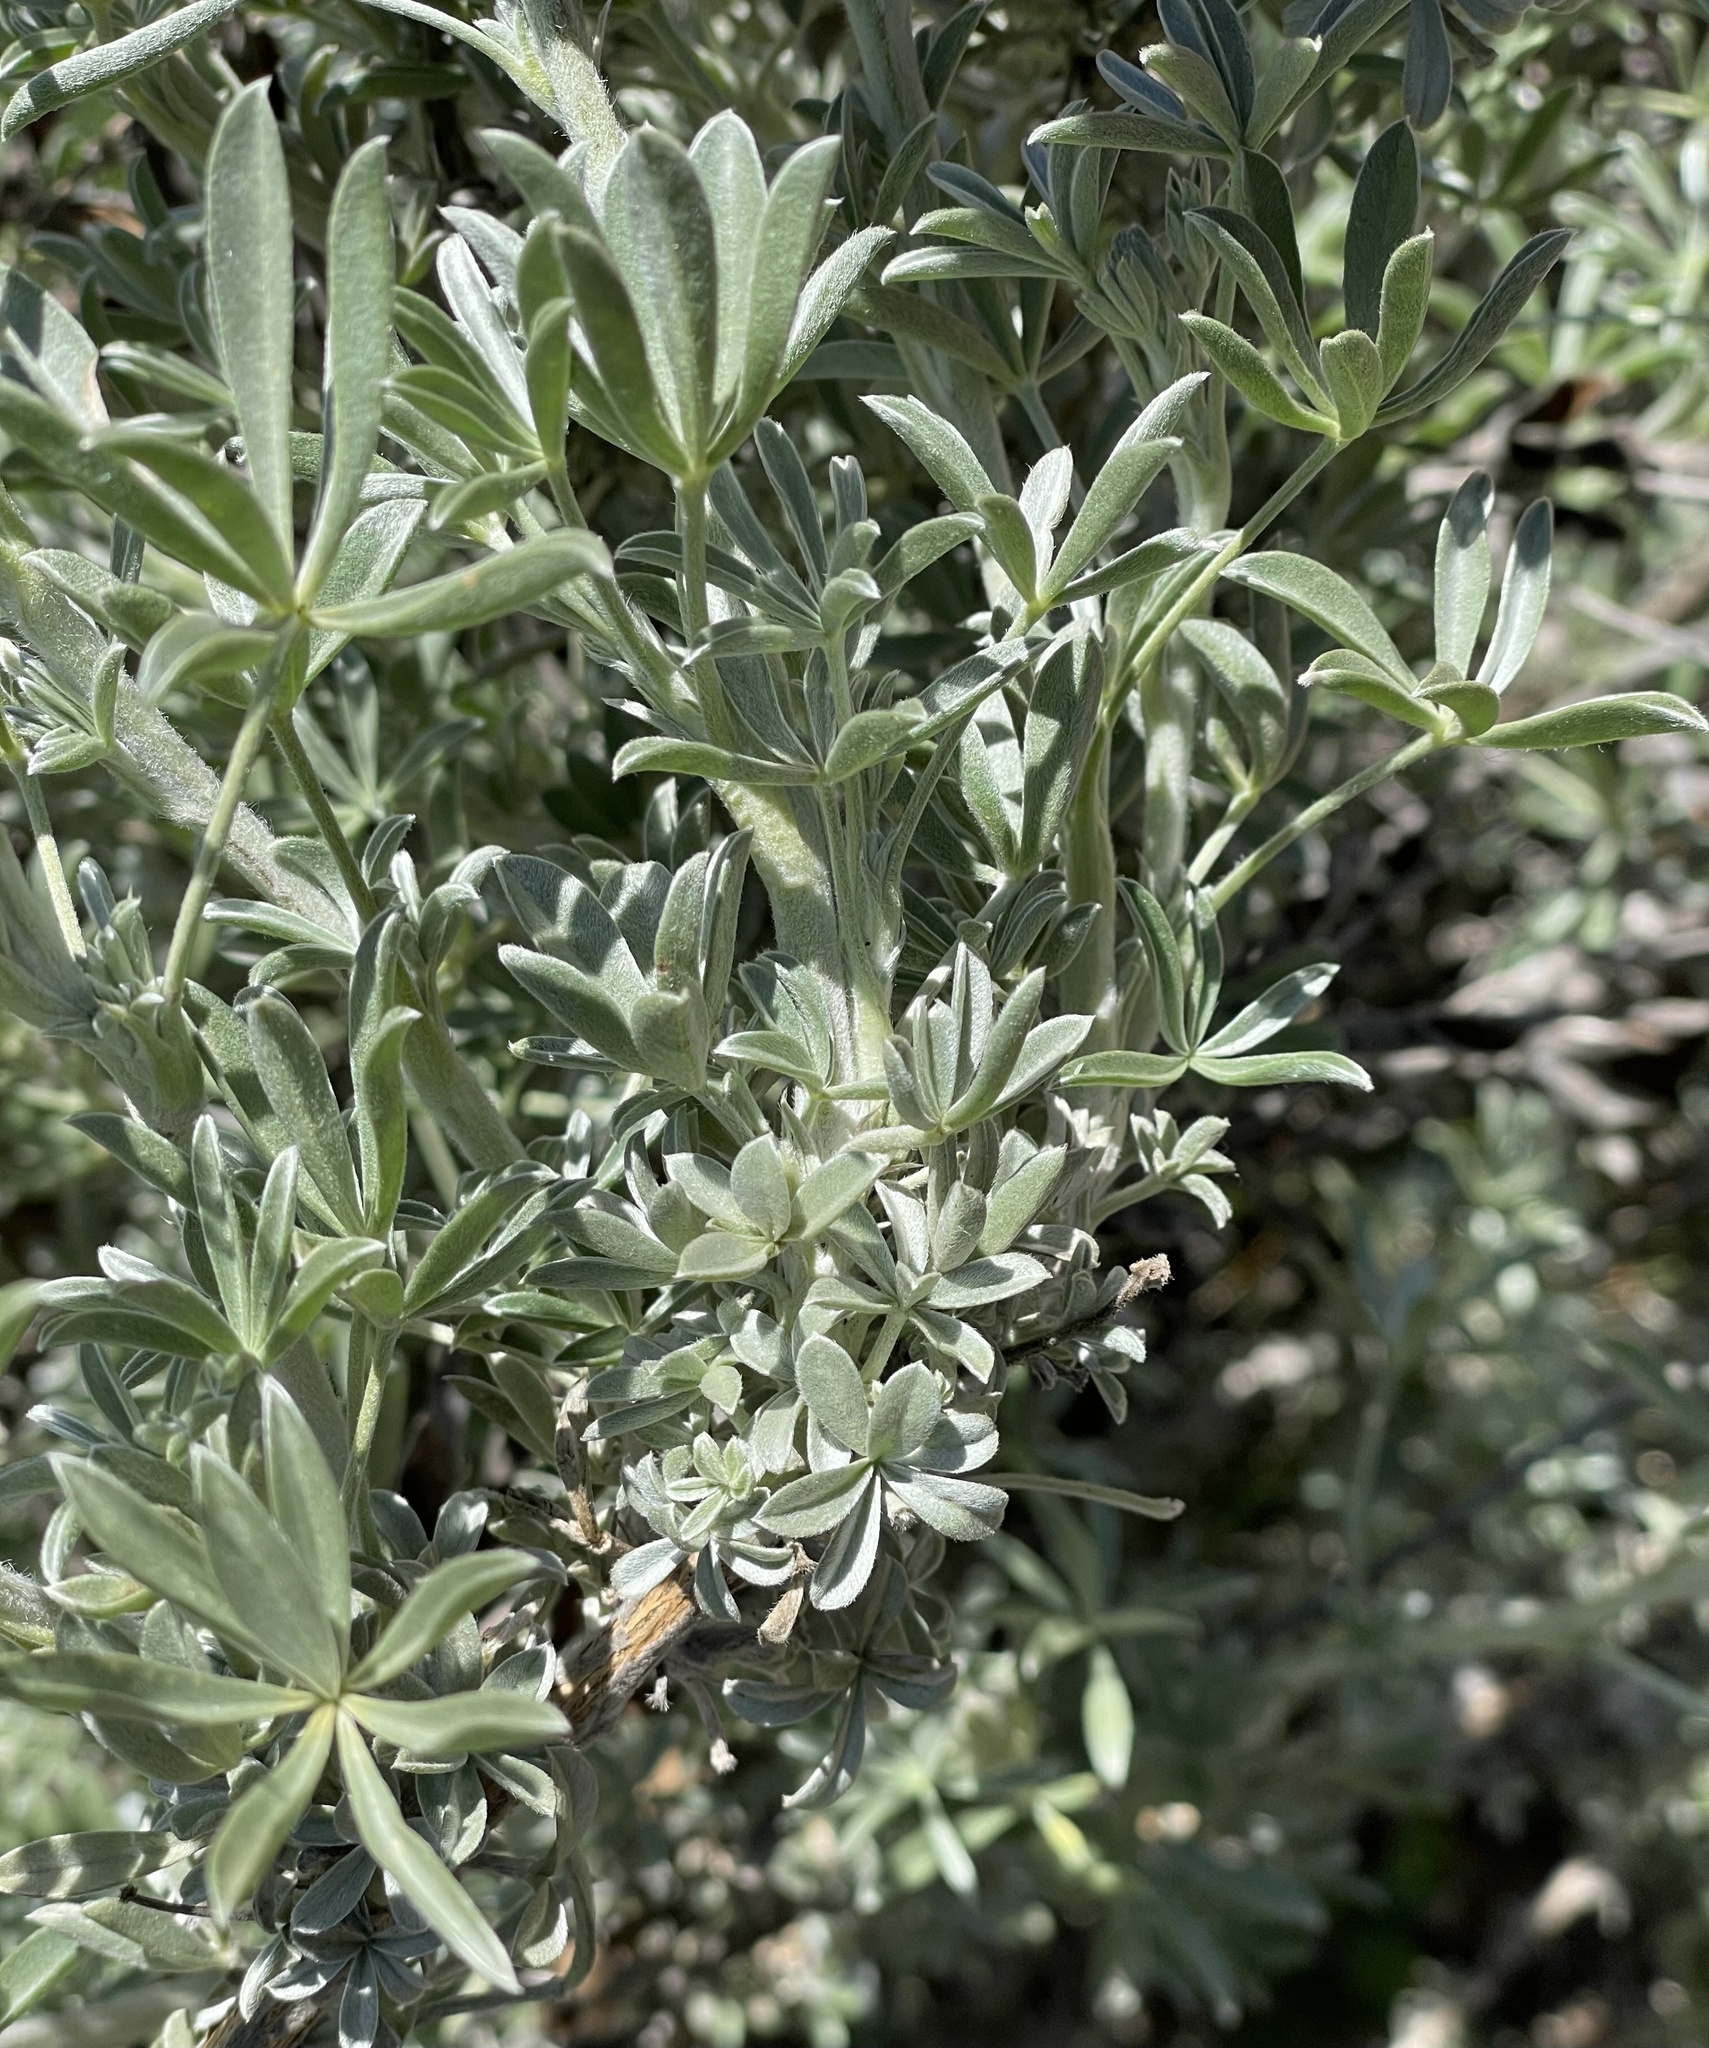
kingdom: Plantae
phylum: Tracheophyta
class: Magnoliopsida
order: Fabales
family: Fabaceae
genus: Lupinus
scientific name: Lupinus chamissonis
